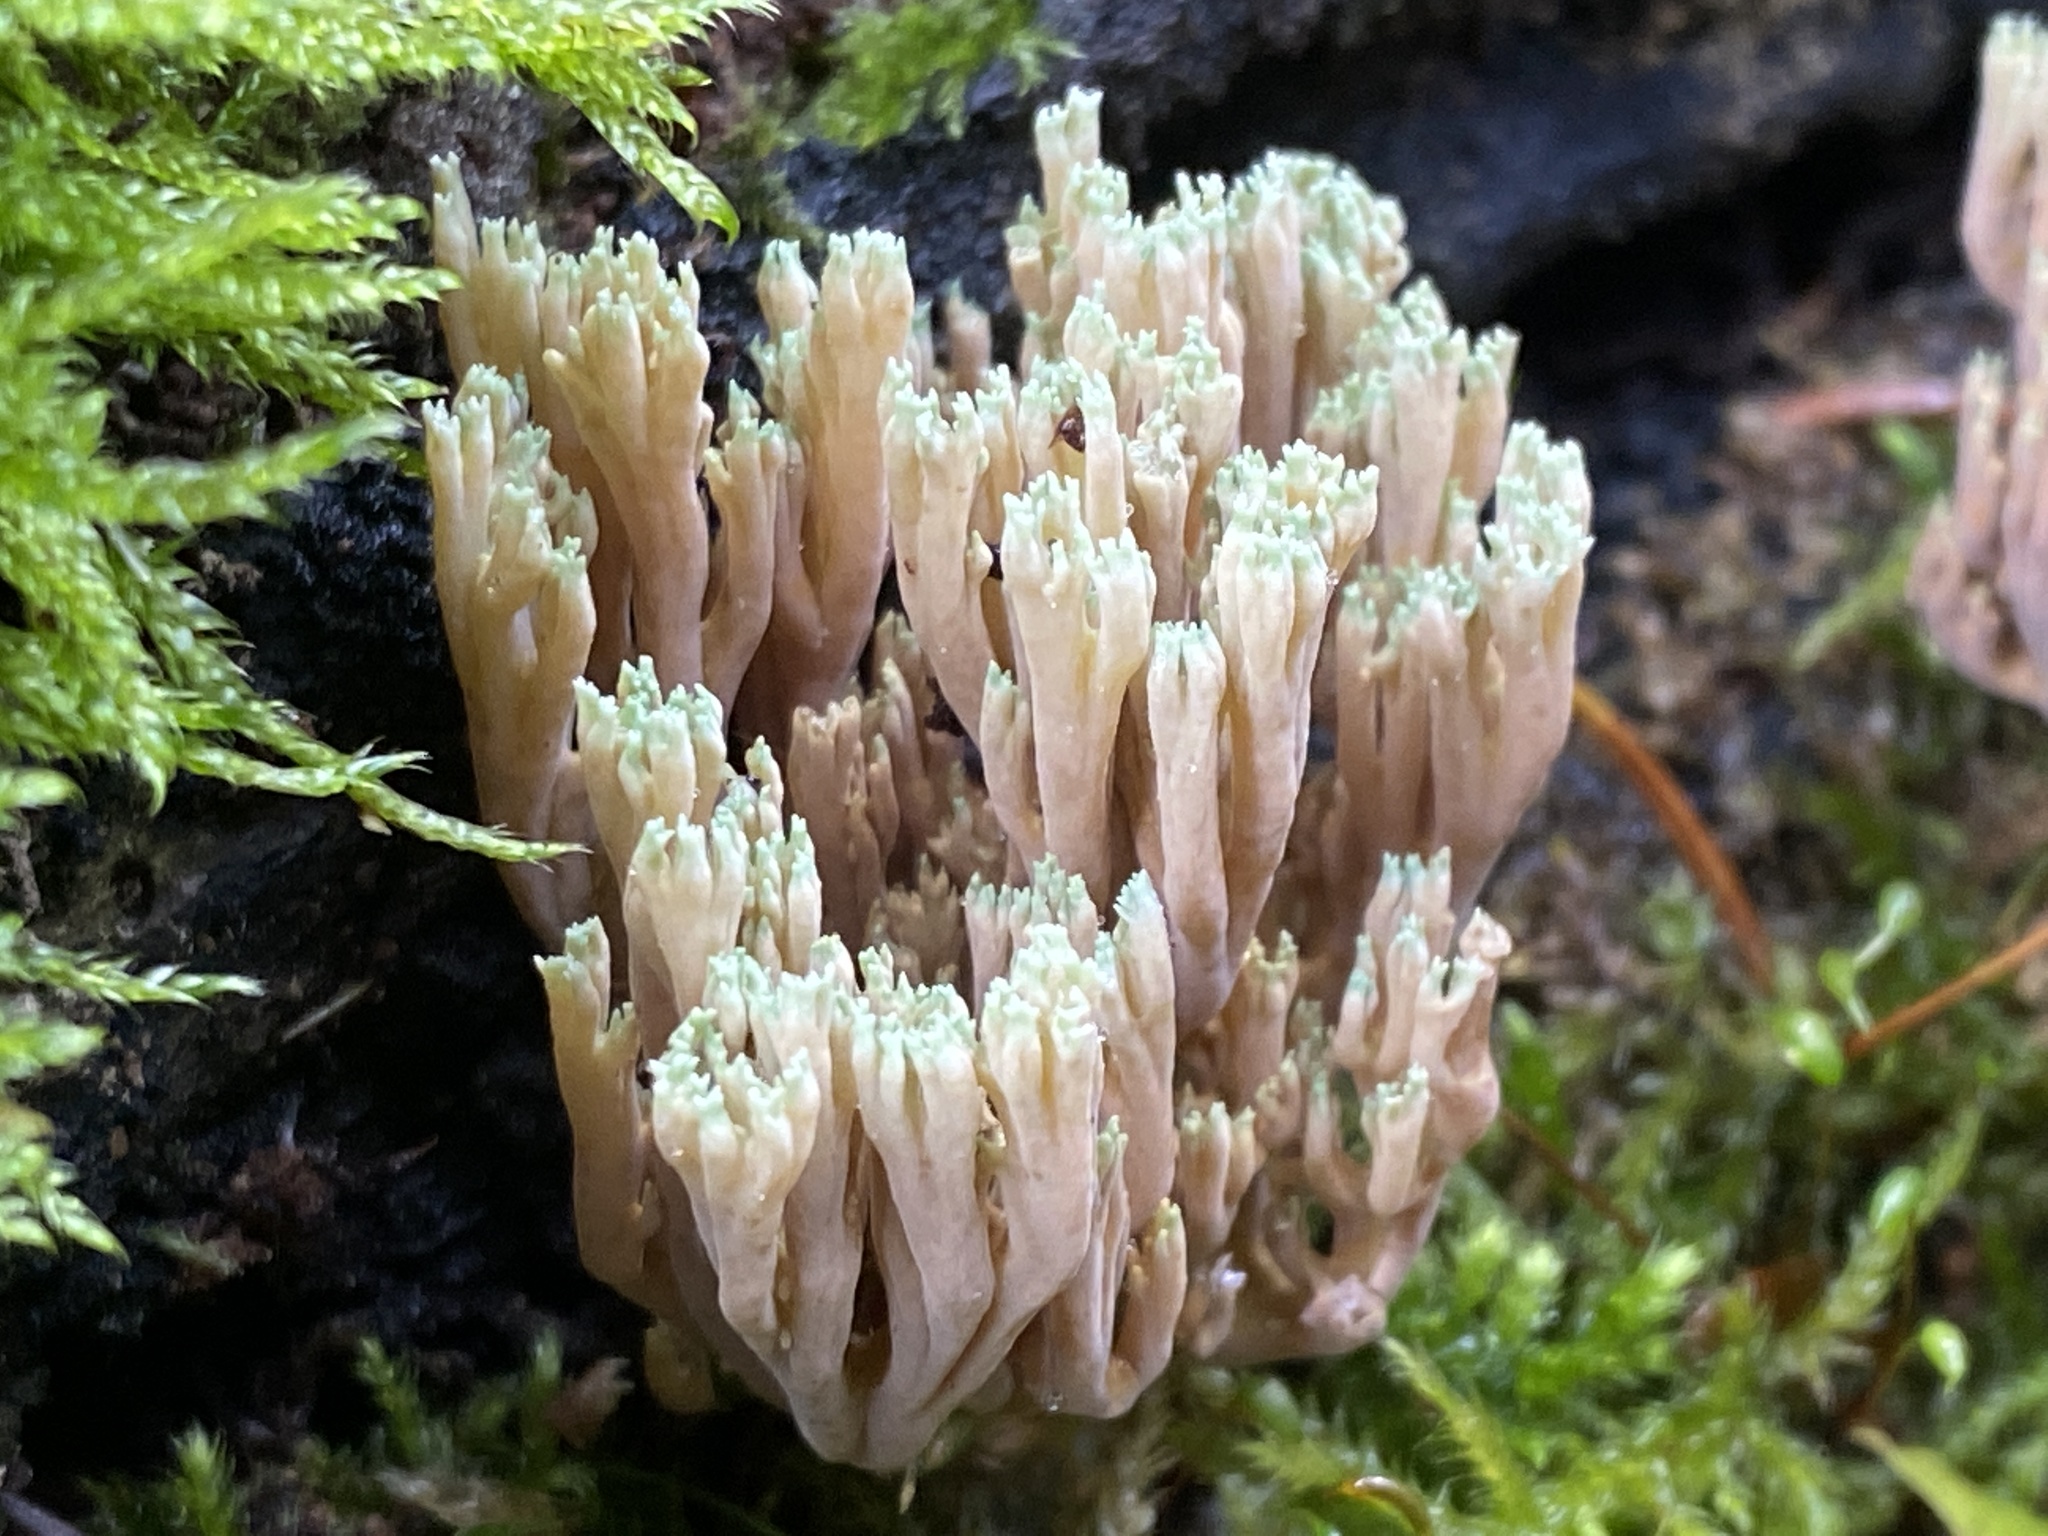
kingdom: Fungi
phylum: Basidiomycota
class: Agaricomycetes
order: Gomphales
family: Gomphaceae
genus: Ramaria
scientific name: Ramaria apiculata
